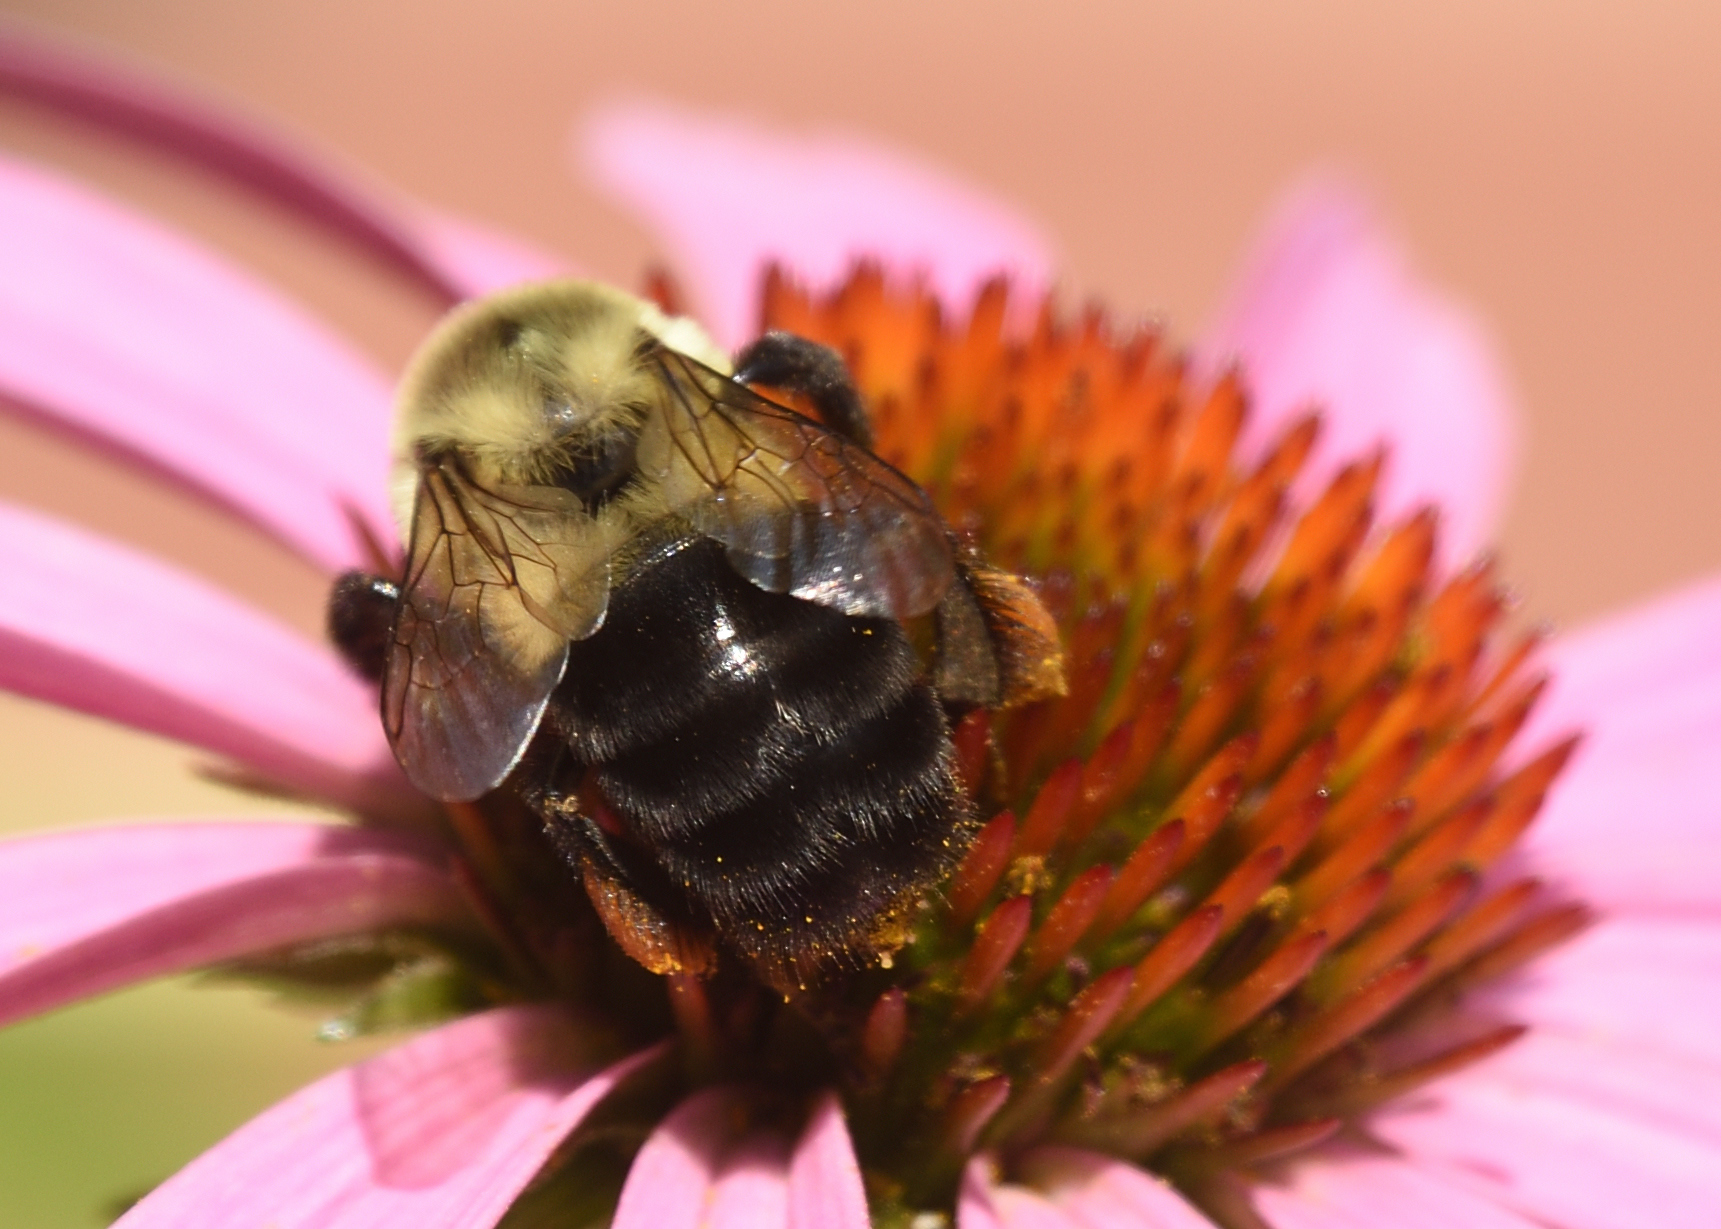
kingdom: Animalia
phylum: Arthropoda
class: Insecta
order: Hymenoptera
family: Apidae
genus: Bombus
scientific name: Bombus impatiens
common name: Common eastern bumble bee
